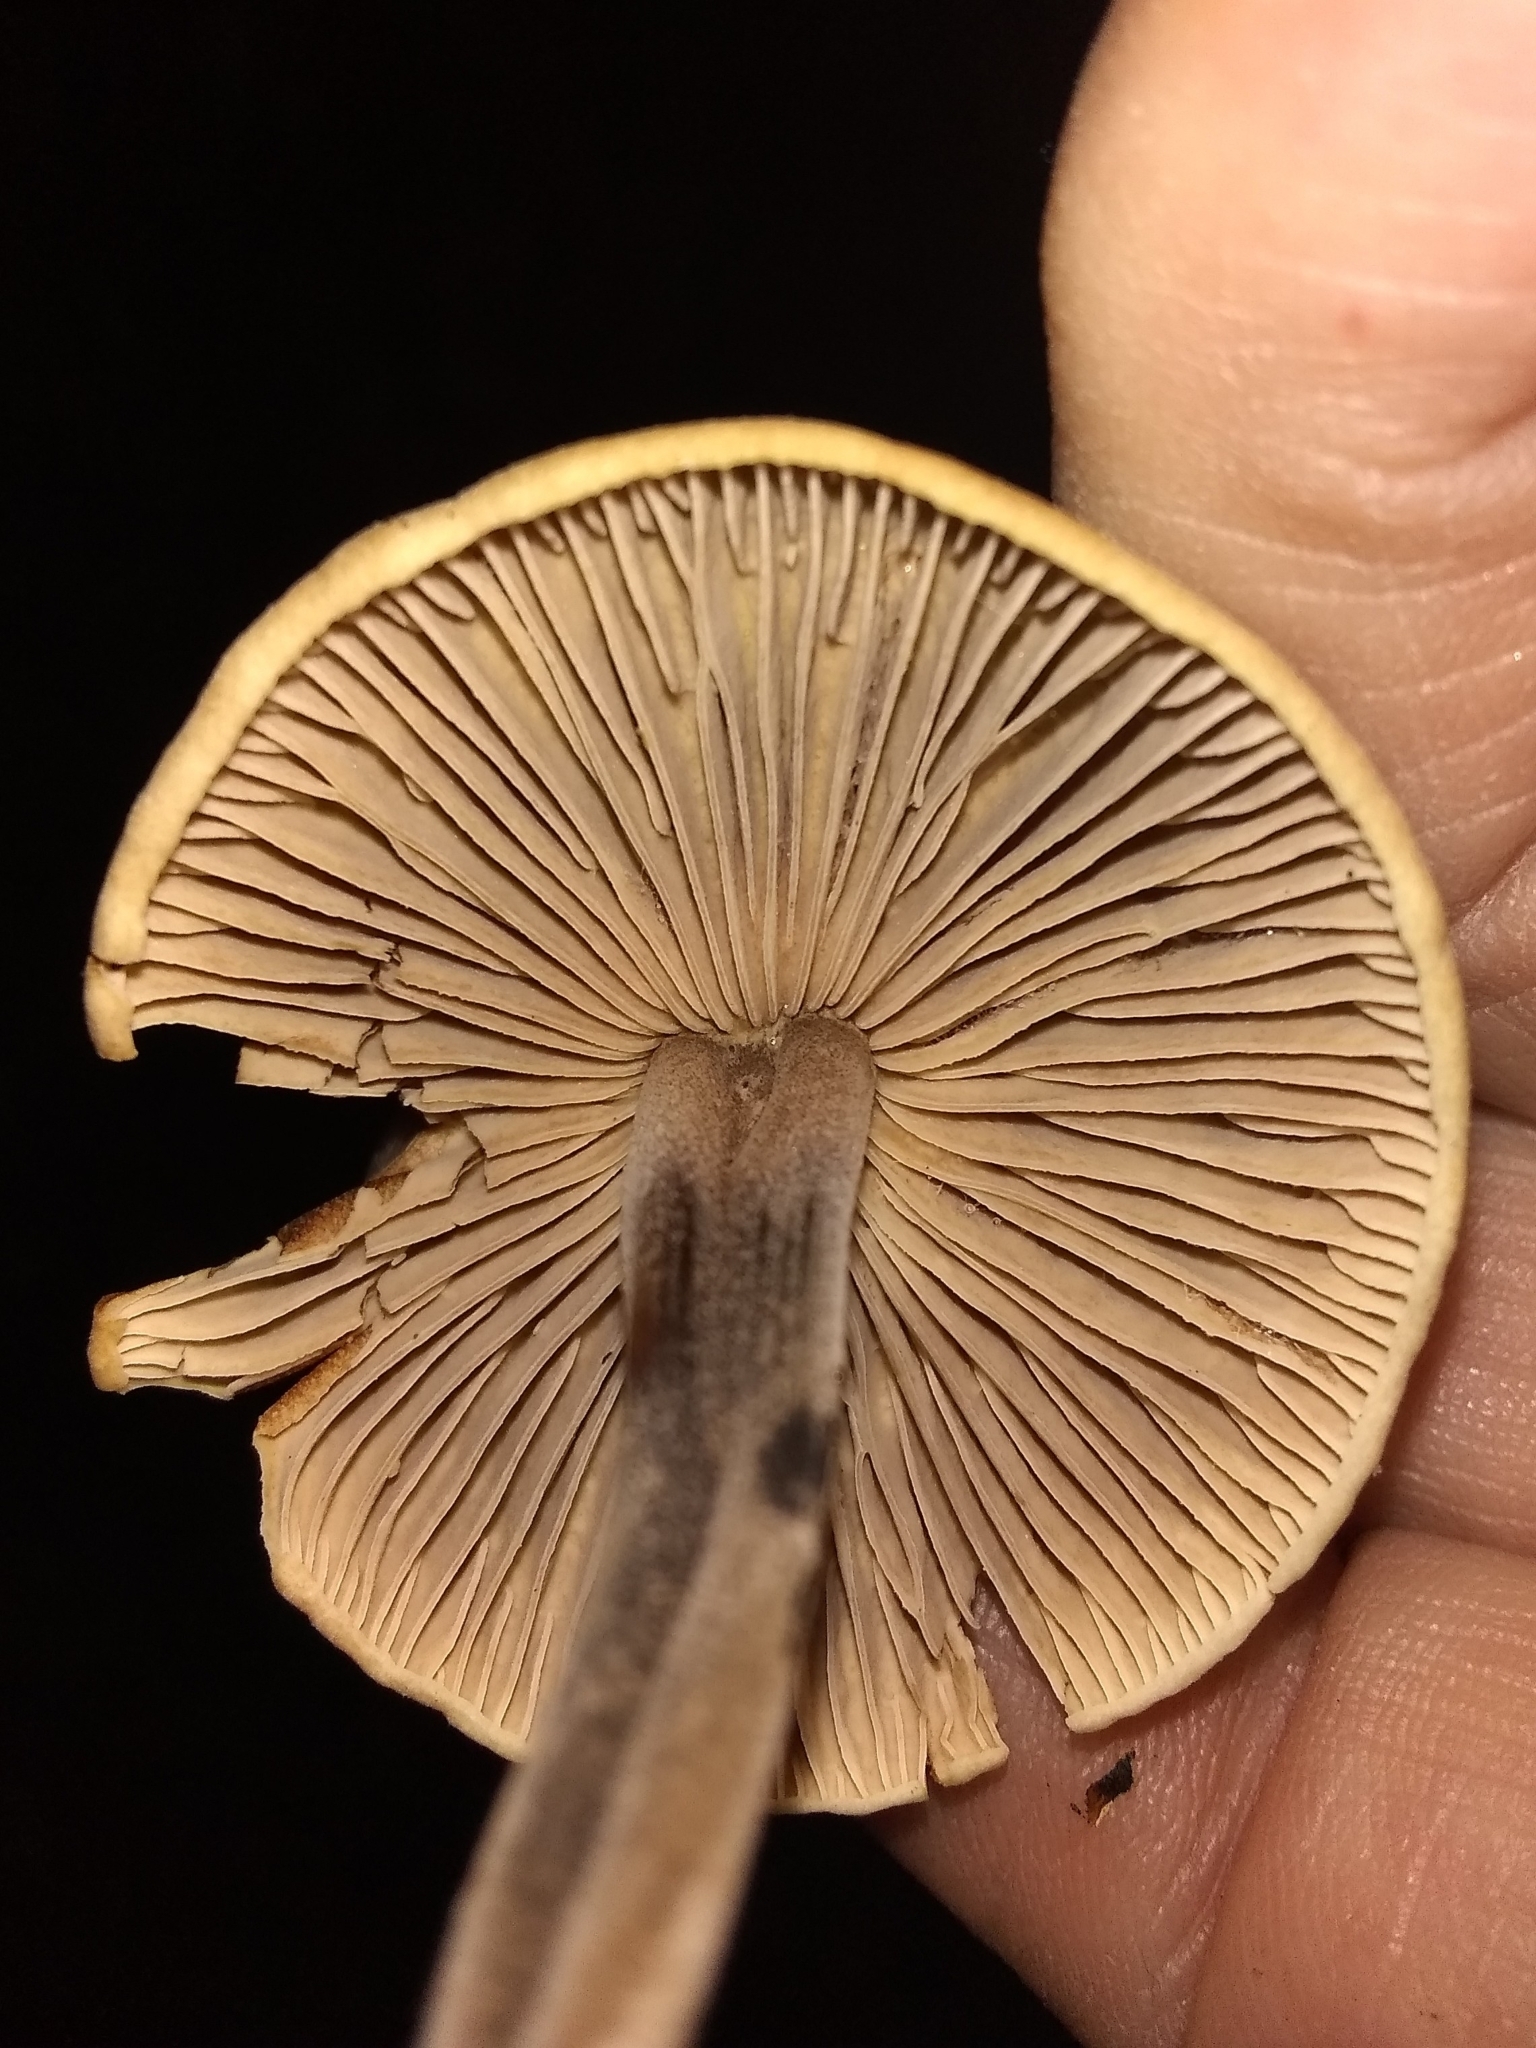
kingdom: Fungi
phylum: Basidiomycota
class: Agaricomycetes
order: Agaricales
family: Omphalotaceae
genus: Gymnopus
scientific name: Gymnopus brassicolens
